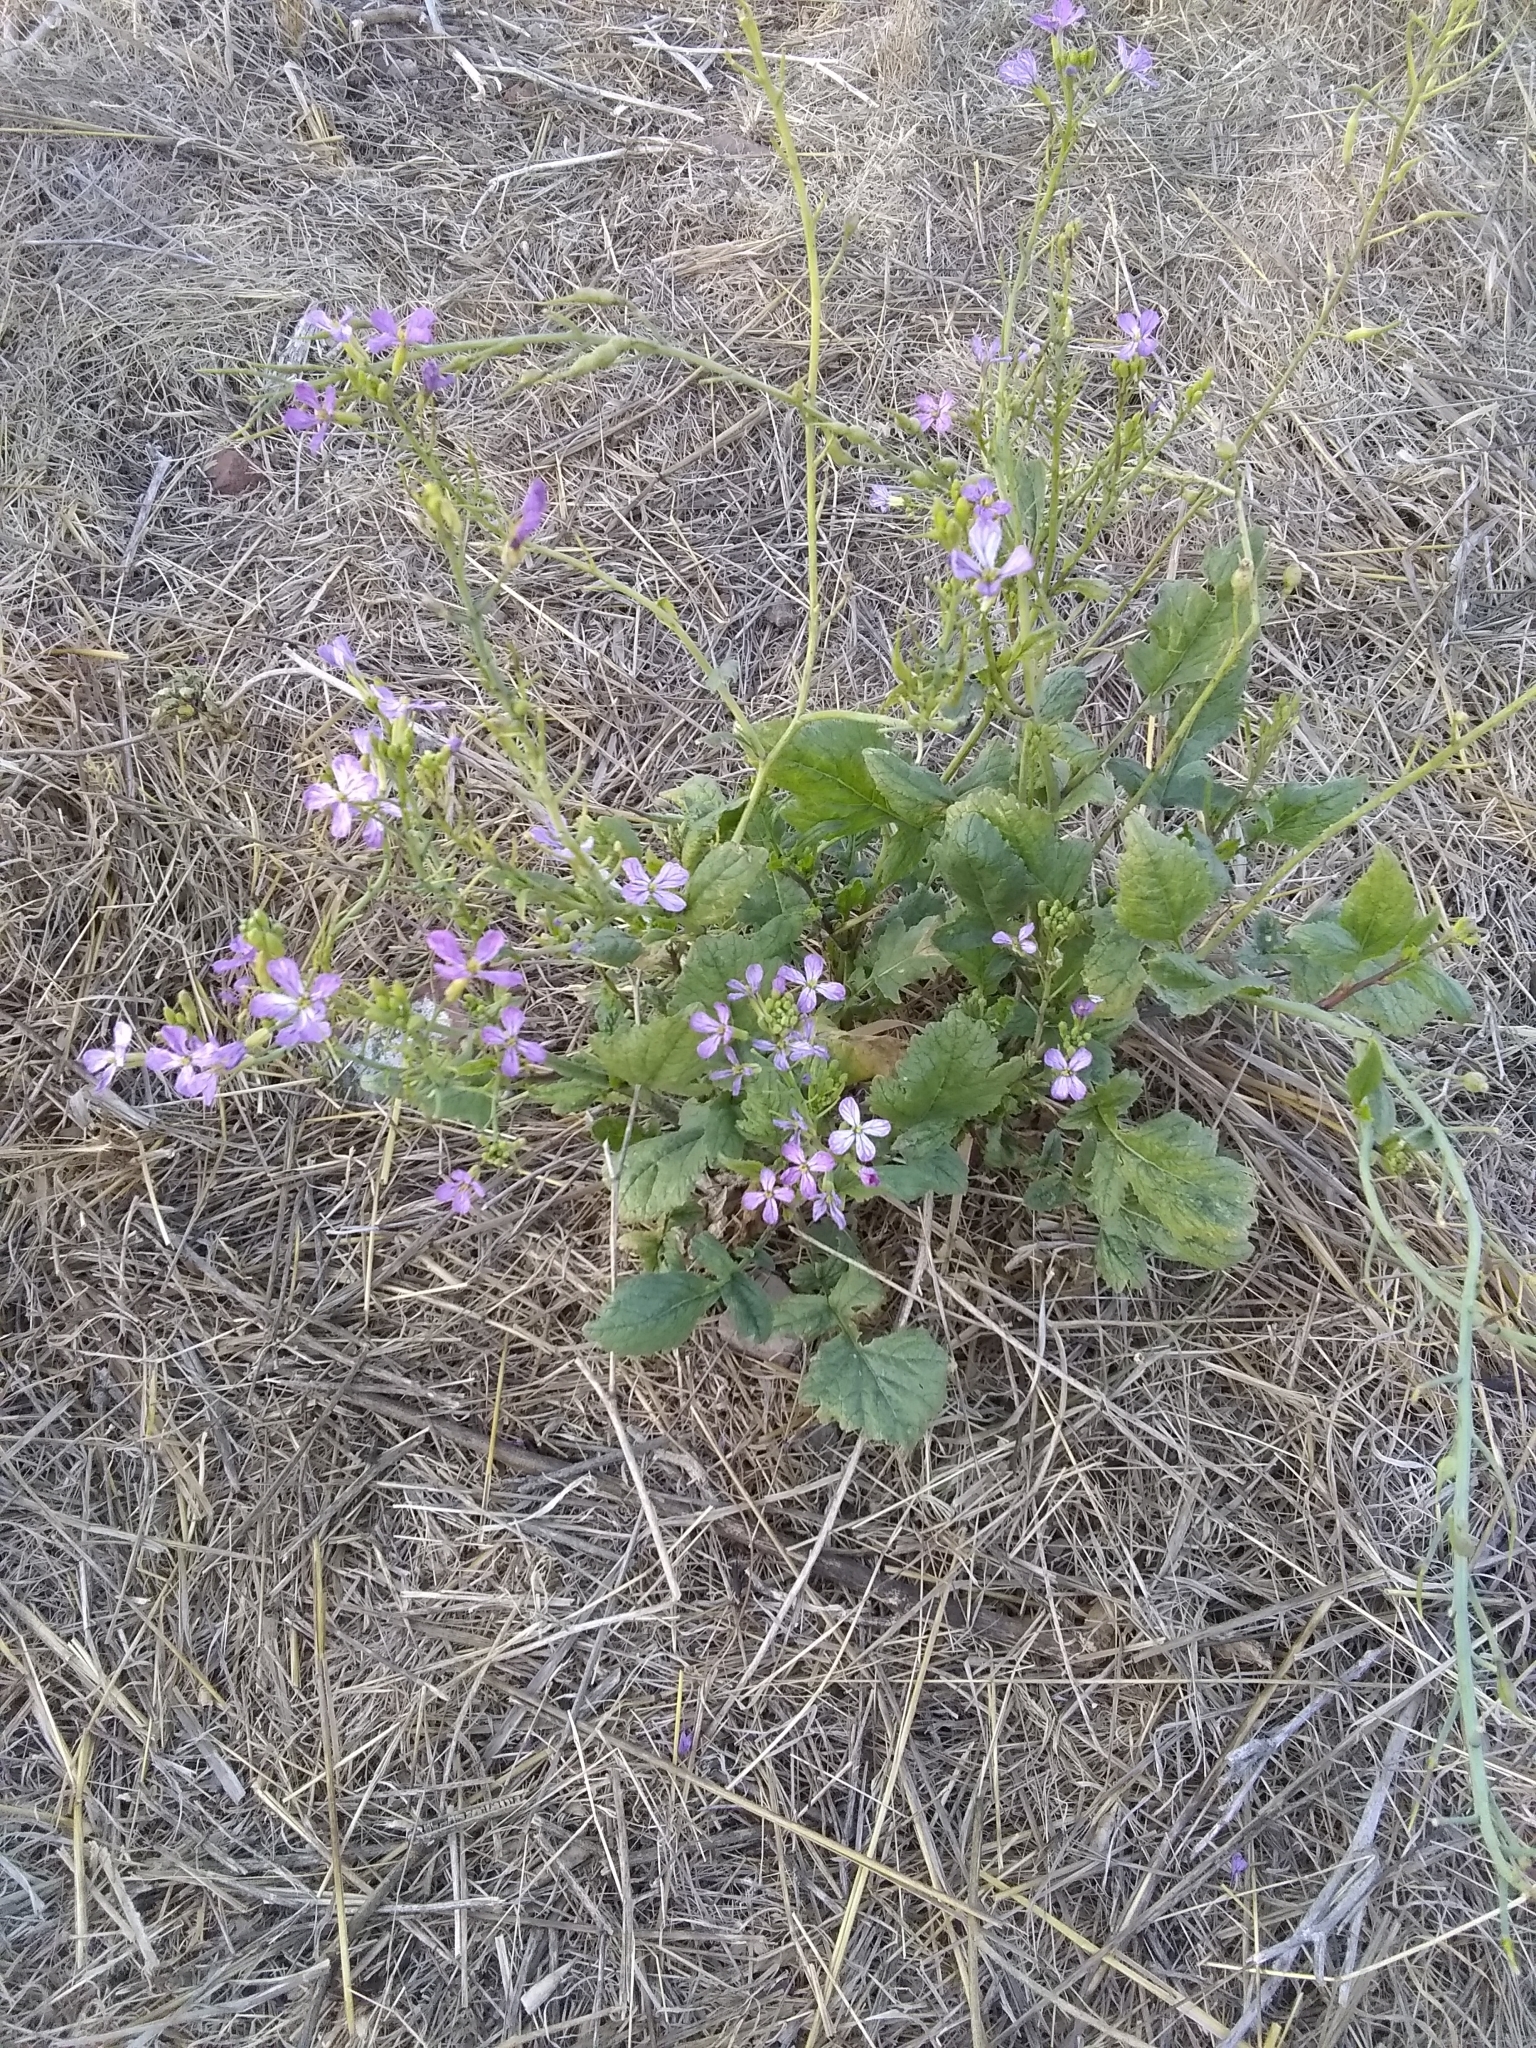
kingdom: Plantae
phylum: Tracheophyta
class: Magnoliopsida
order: Brassicales
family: Brassicaceae
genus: Raphanus
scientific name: Raphanus sativus
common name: Cultivated radish
